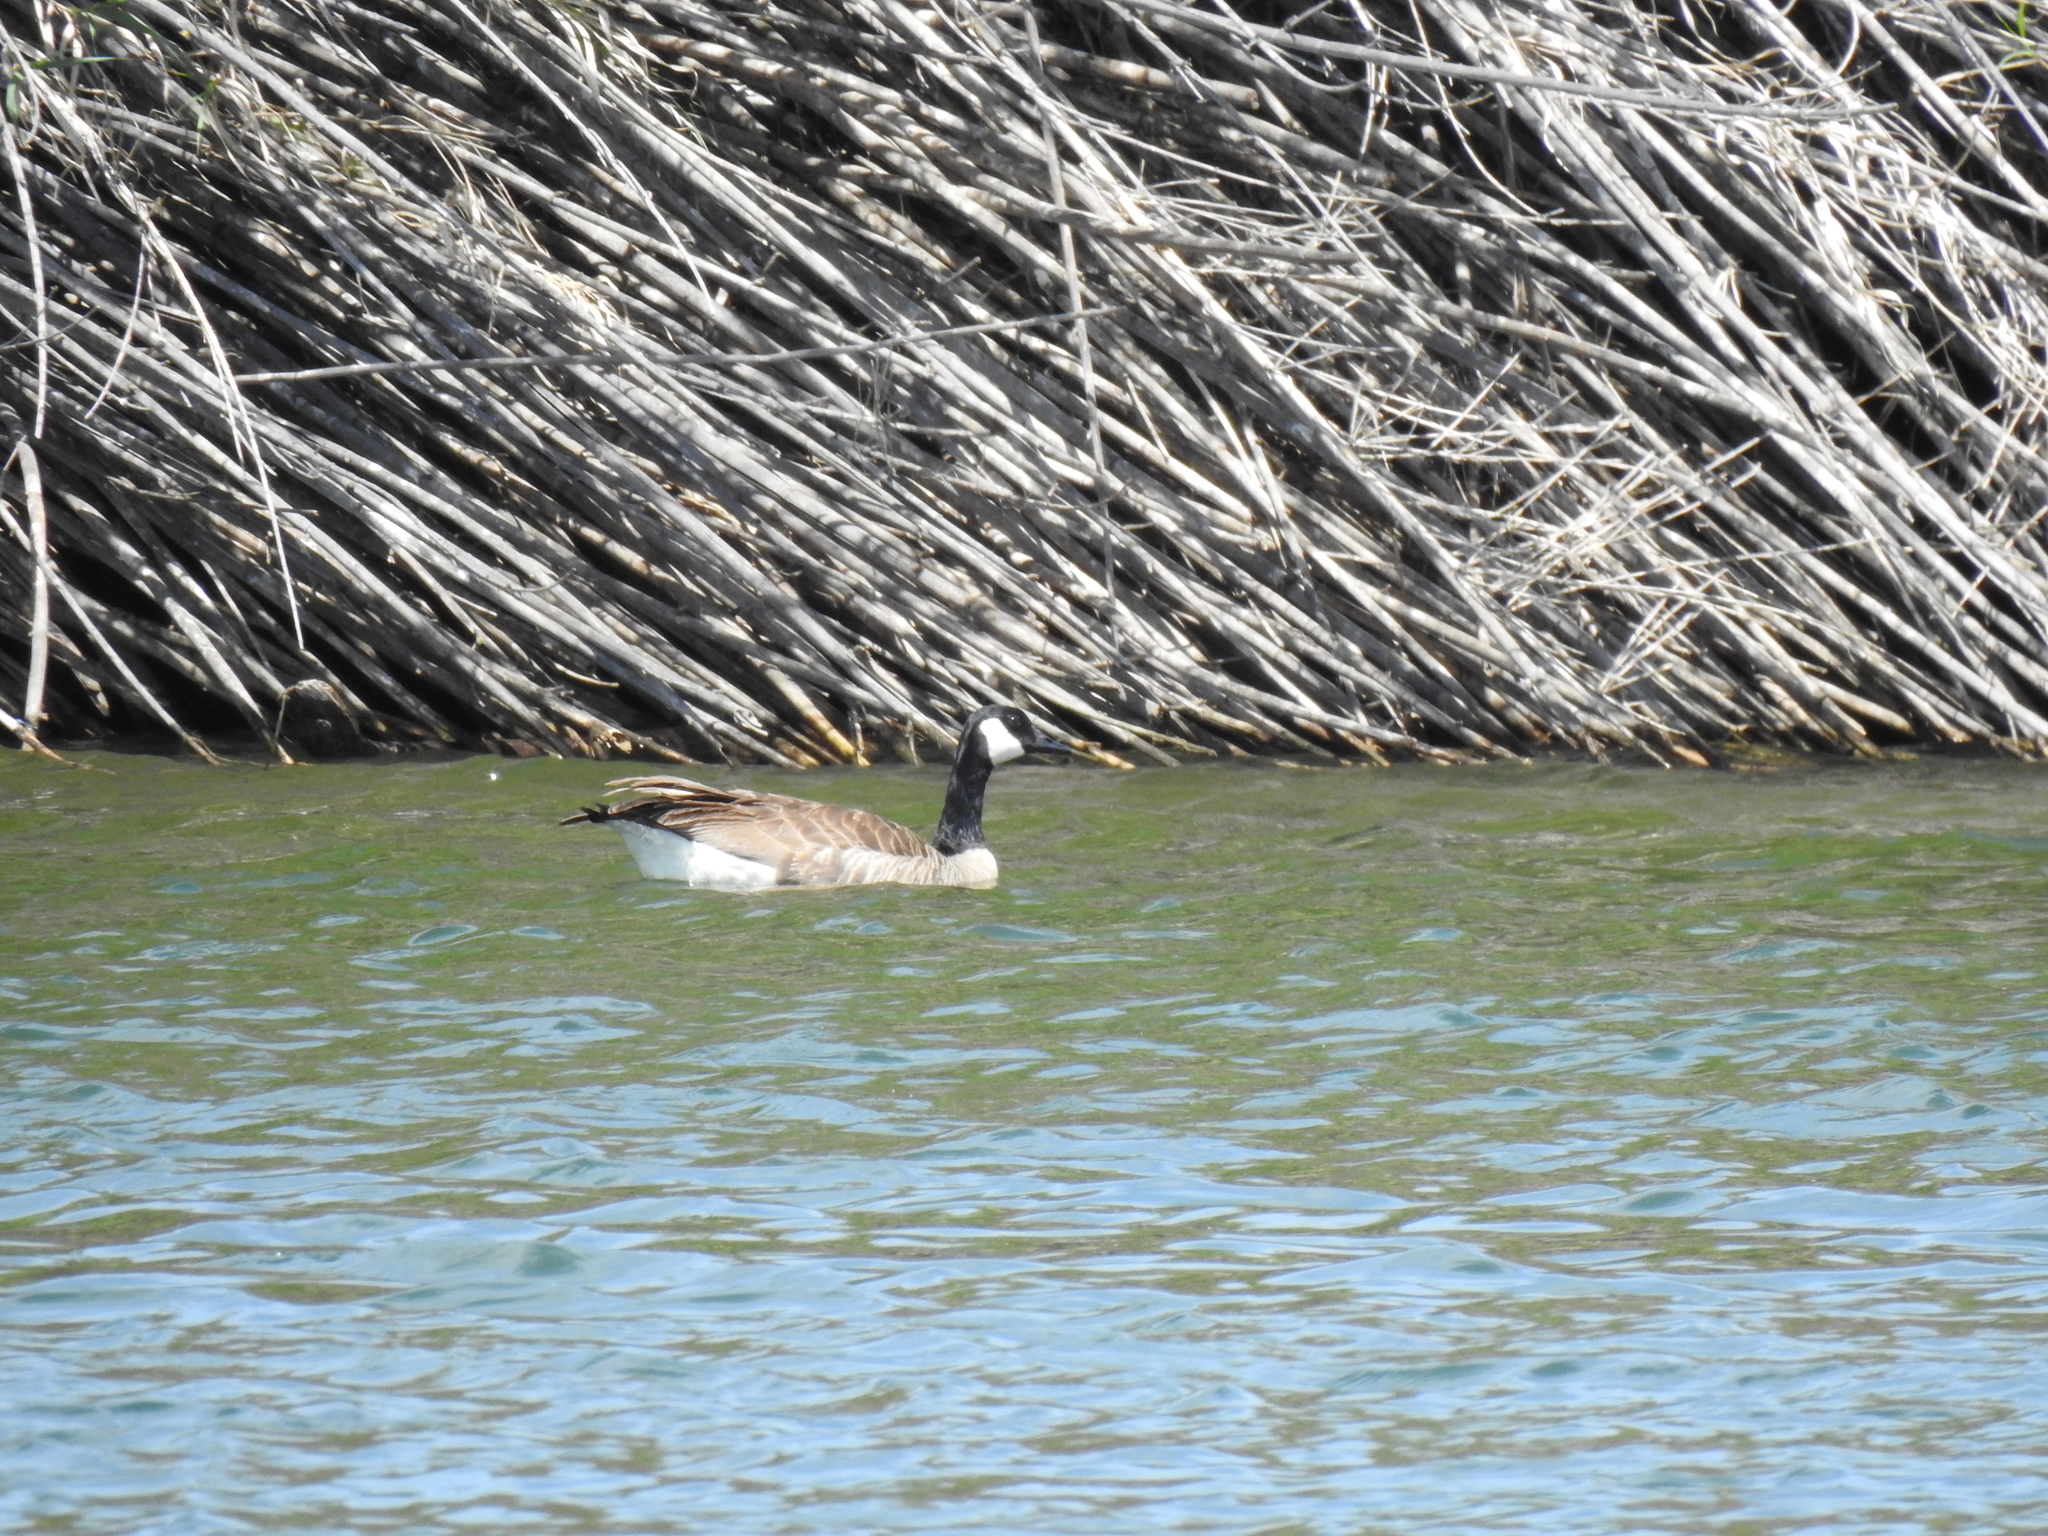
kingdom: Animalia
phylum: Chordata
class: Aves
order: Anseriformes
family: Anatidae
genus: Branta
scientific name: Branta canadensis
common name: Canada goose
